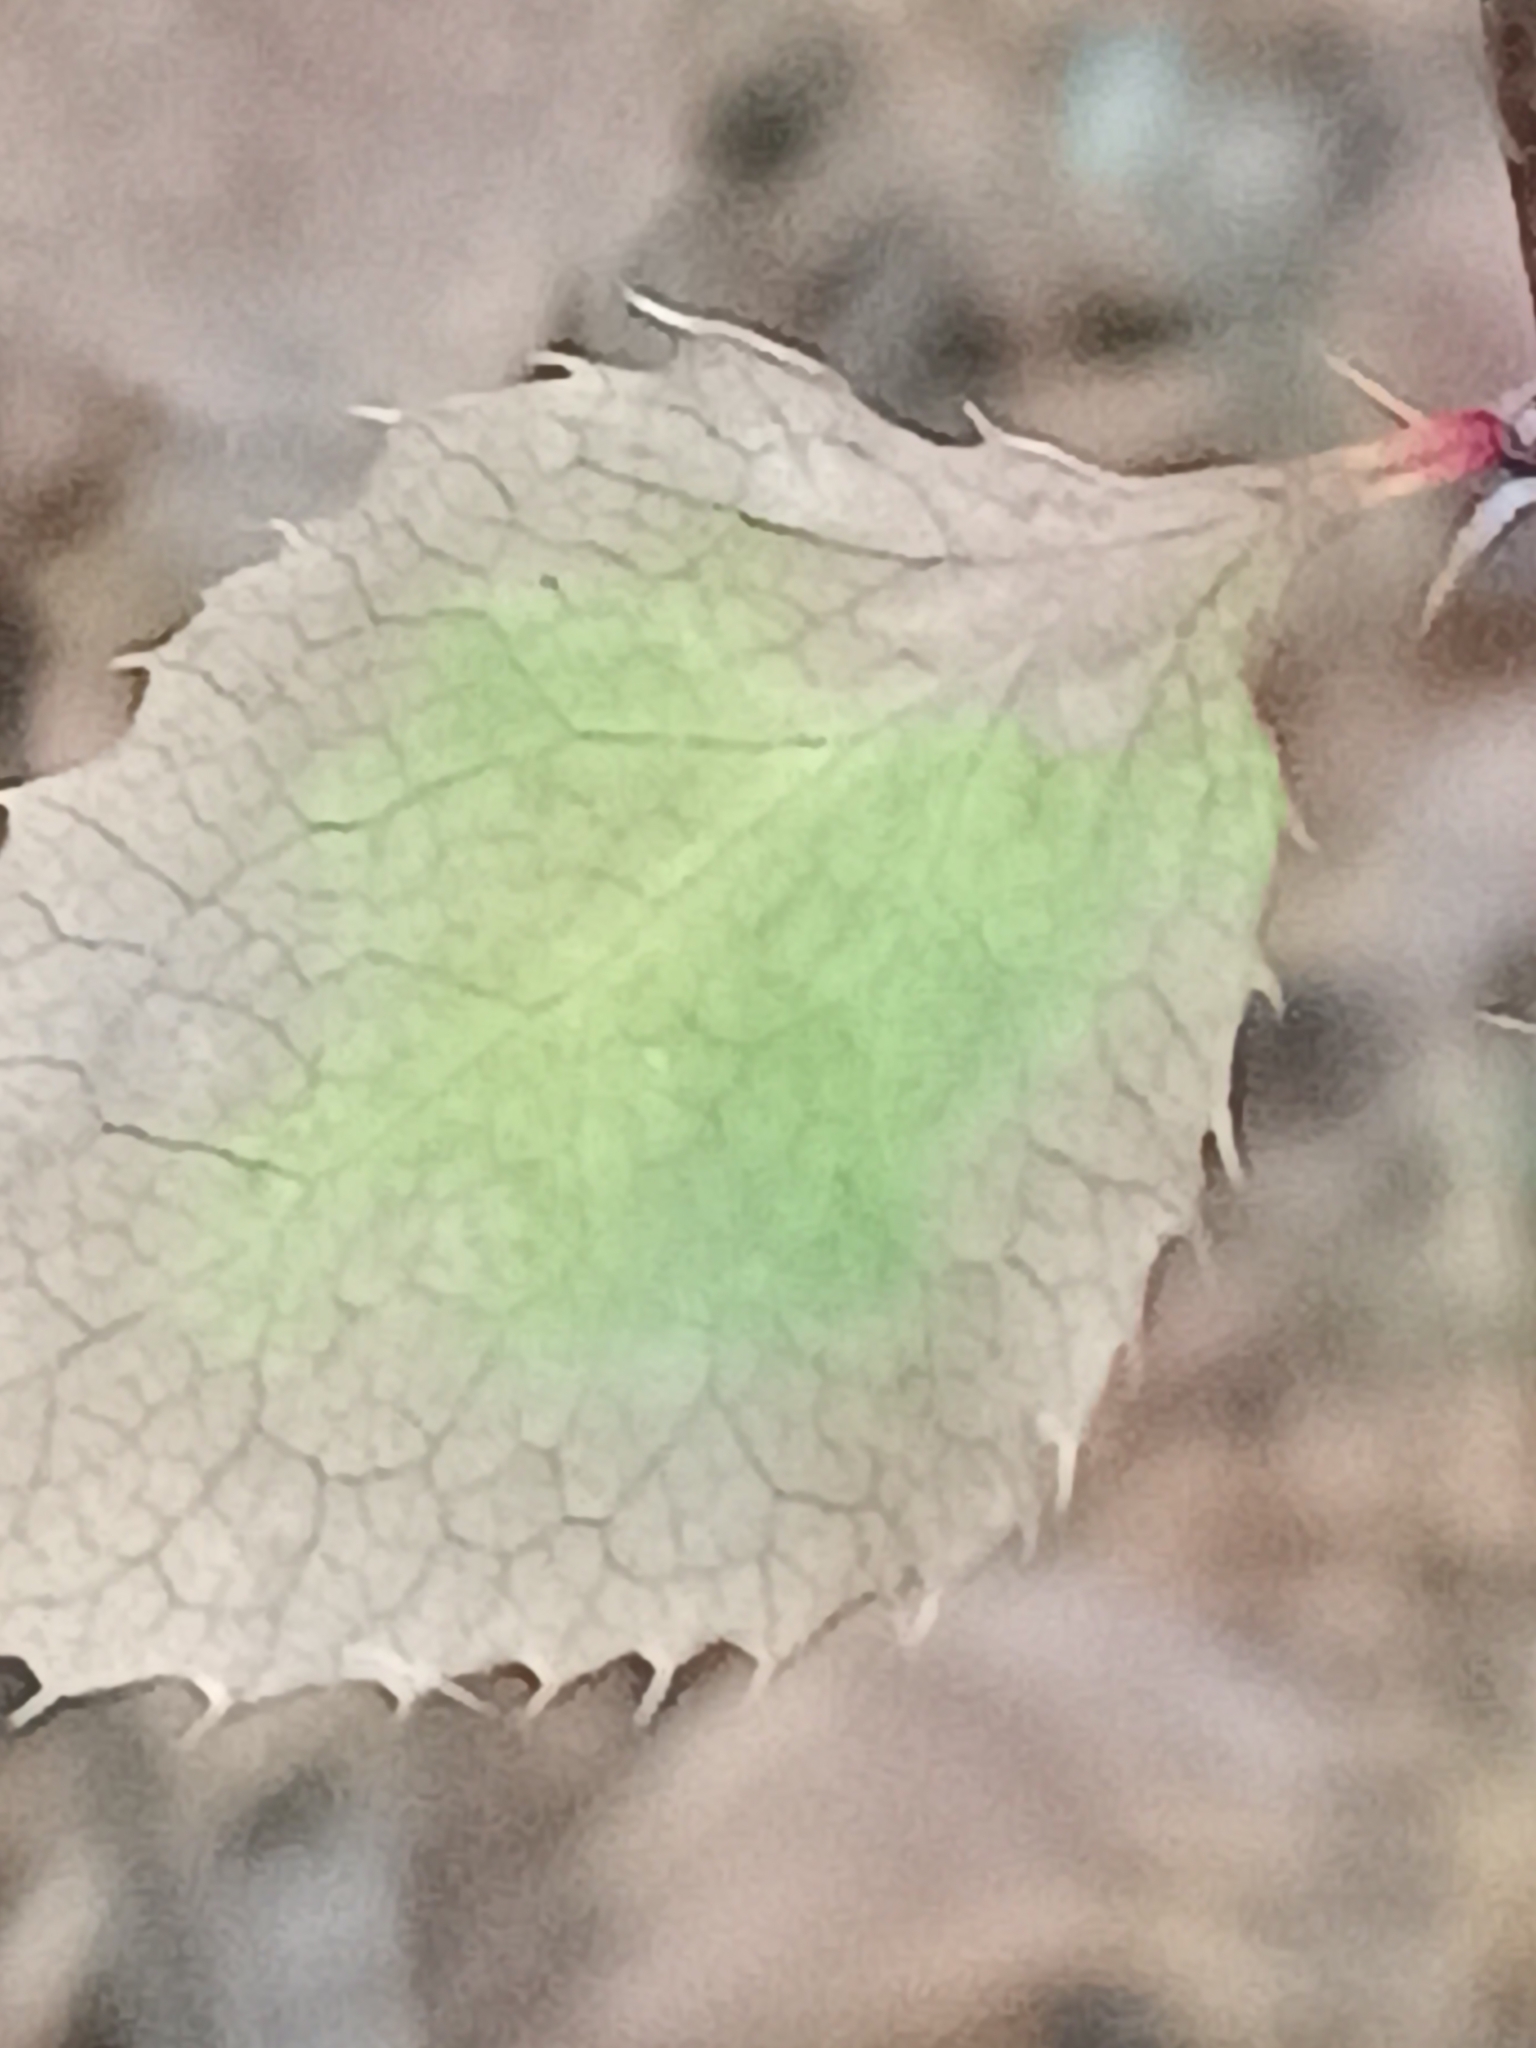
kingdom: Plantae
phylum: Tracheophyta
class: Magnoliopsida
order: Ranunculales
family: Berberidaceae
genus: Berberis
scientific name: Berberis vulgaris
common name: Barberry
